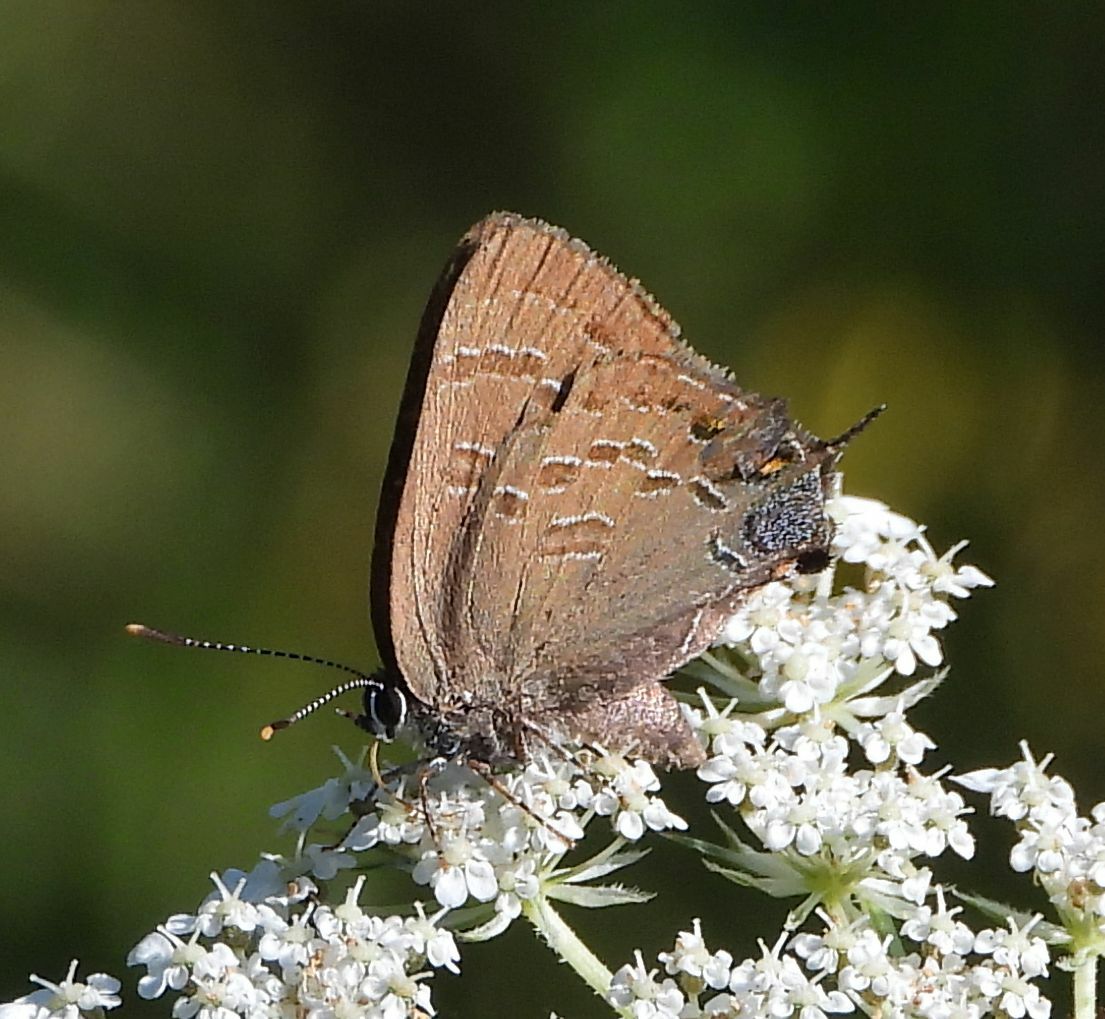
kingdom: Animalia
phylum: Arthropoda
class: Insecta
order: Lepidoptera
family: Lycaenidae
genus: Satyrium
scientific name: Satyrium calanus
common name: Banded hairstreak
